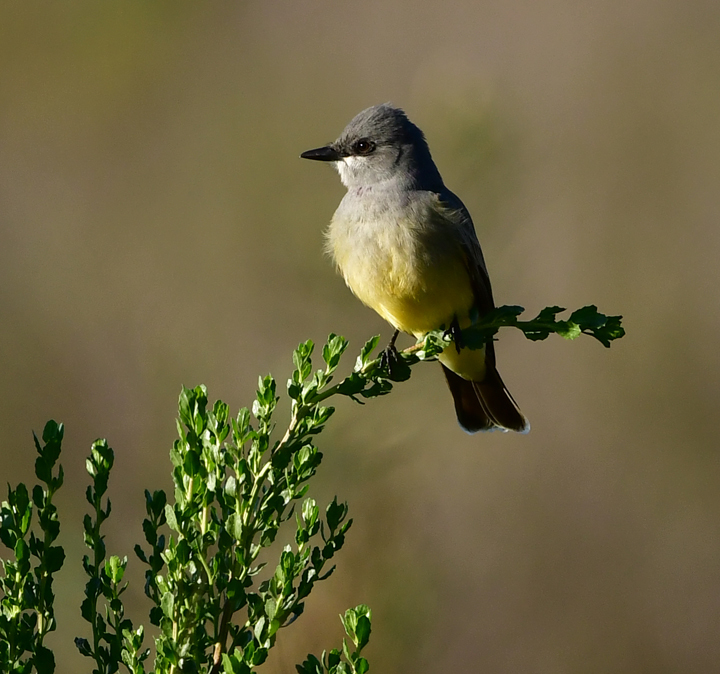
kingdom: Animalia
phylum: Chordata
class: Aves
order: Passeriformes
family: Tyrannidae
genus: Tyrannus
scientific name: Tyrannus vociferans
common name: Cassin's kingbird
